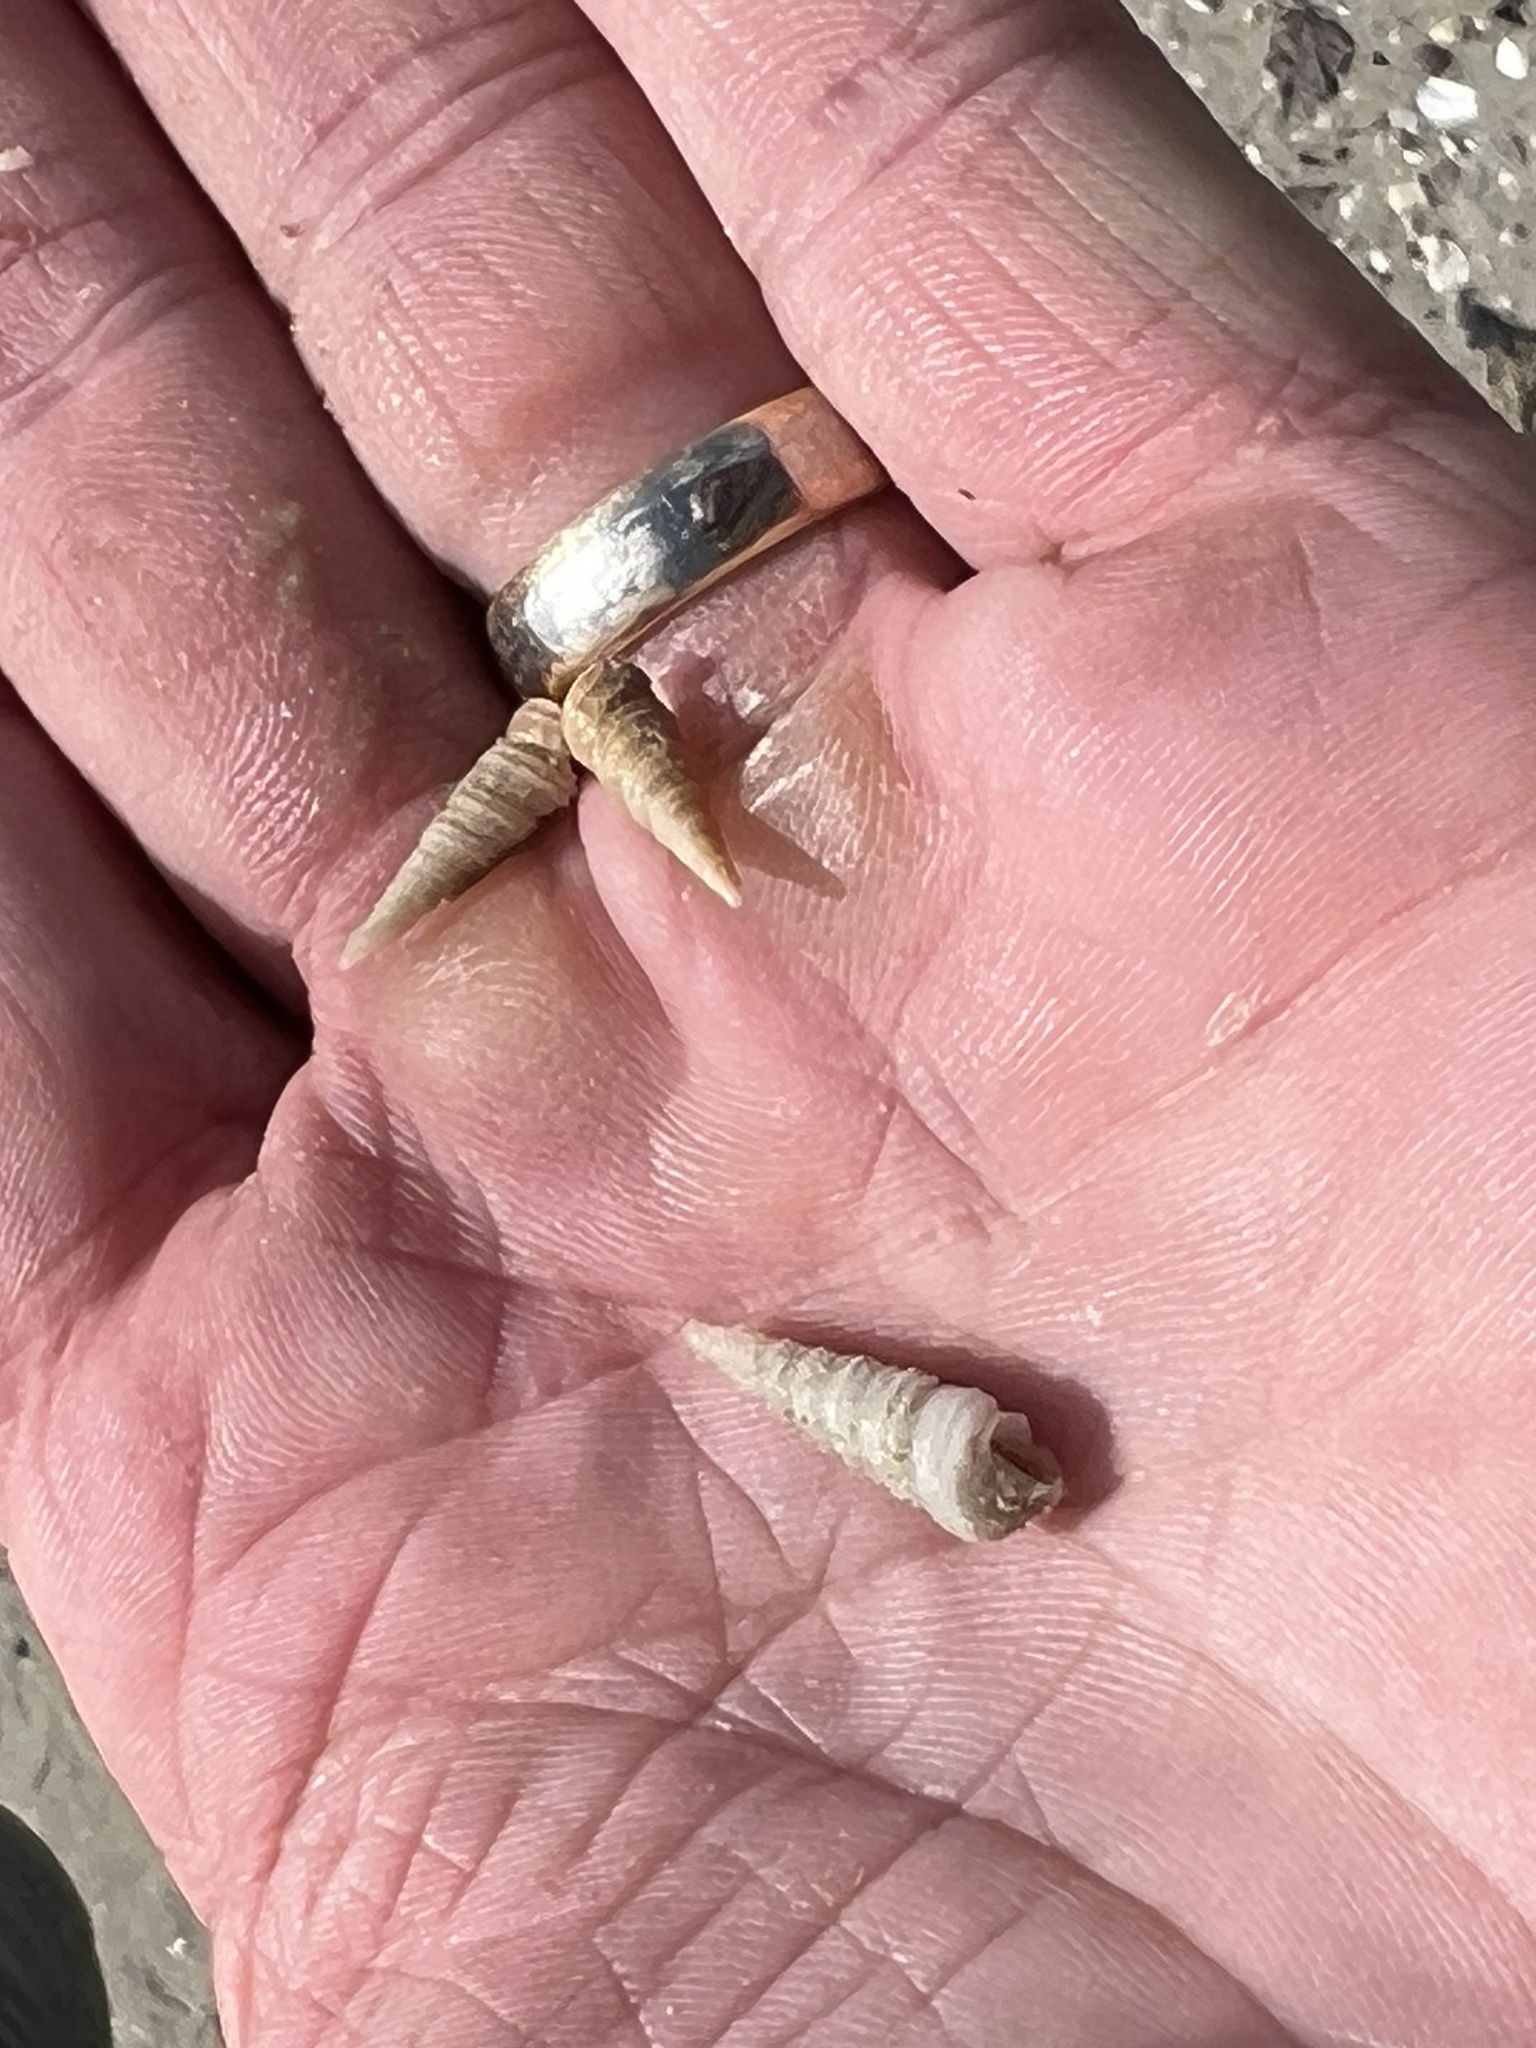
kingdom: Animalia
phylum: Mollusca
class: Gastropoda
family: Turritellidae
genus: Vermicularia
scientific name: Vermicularia fargoi
